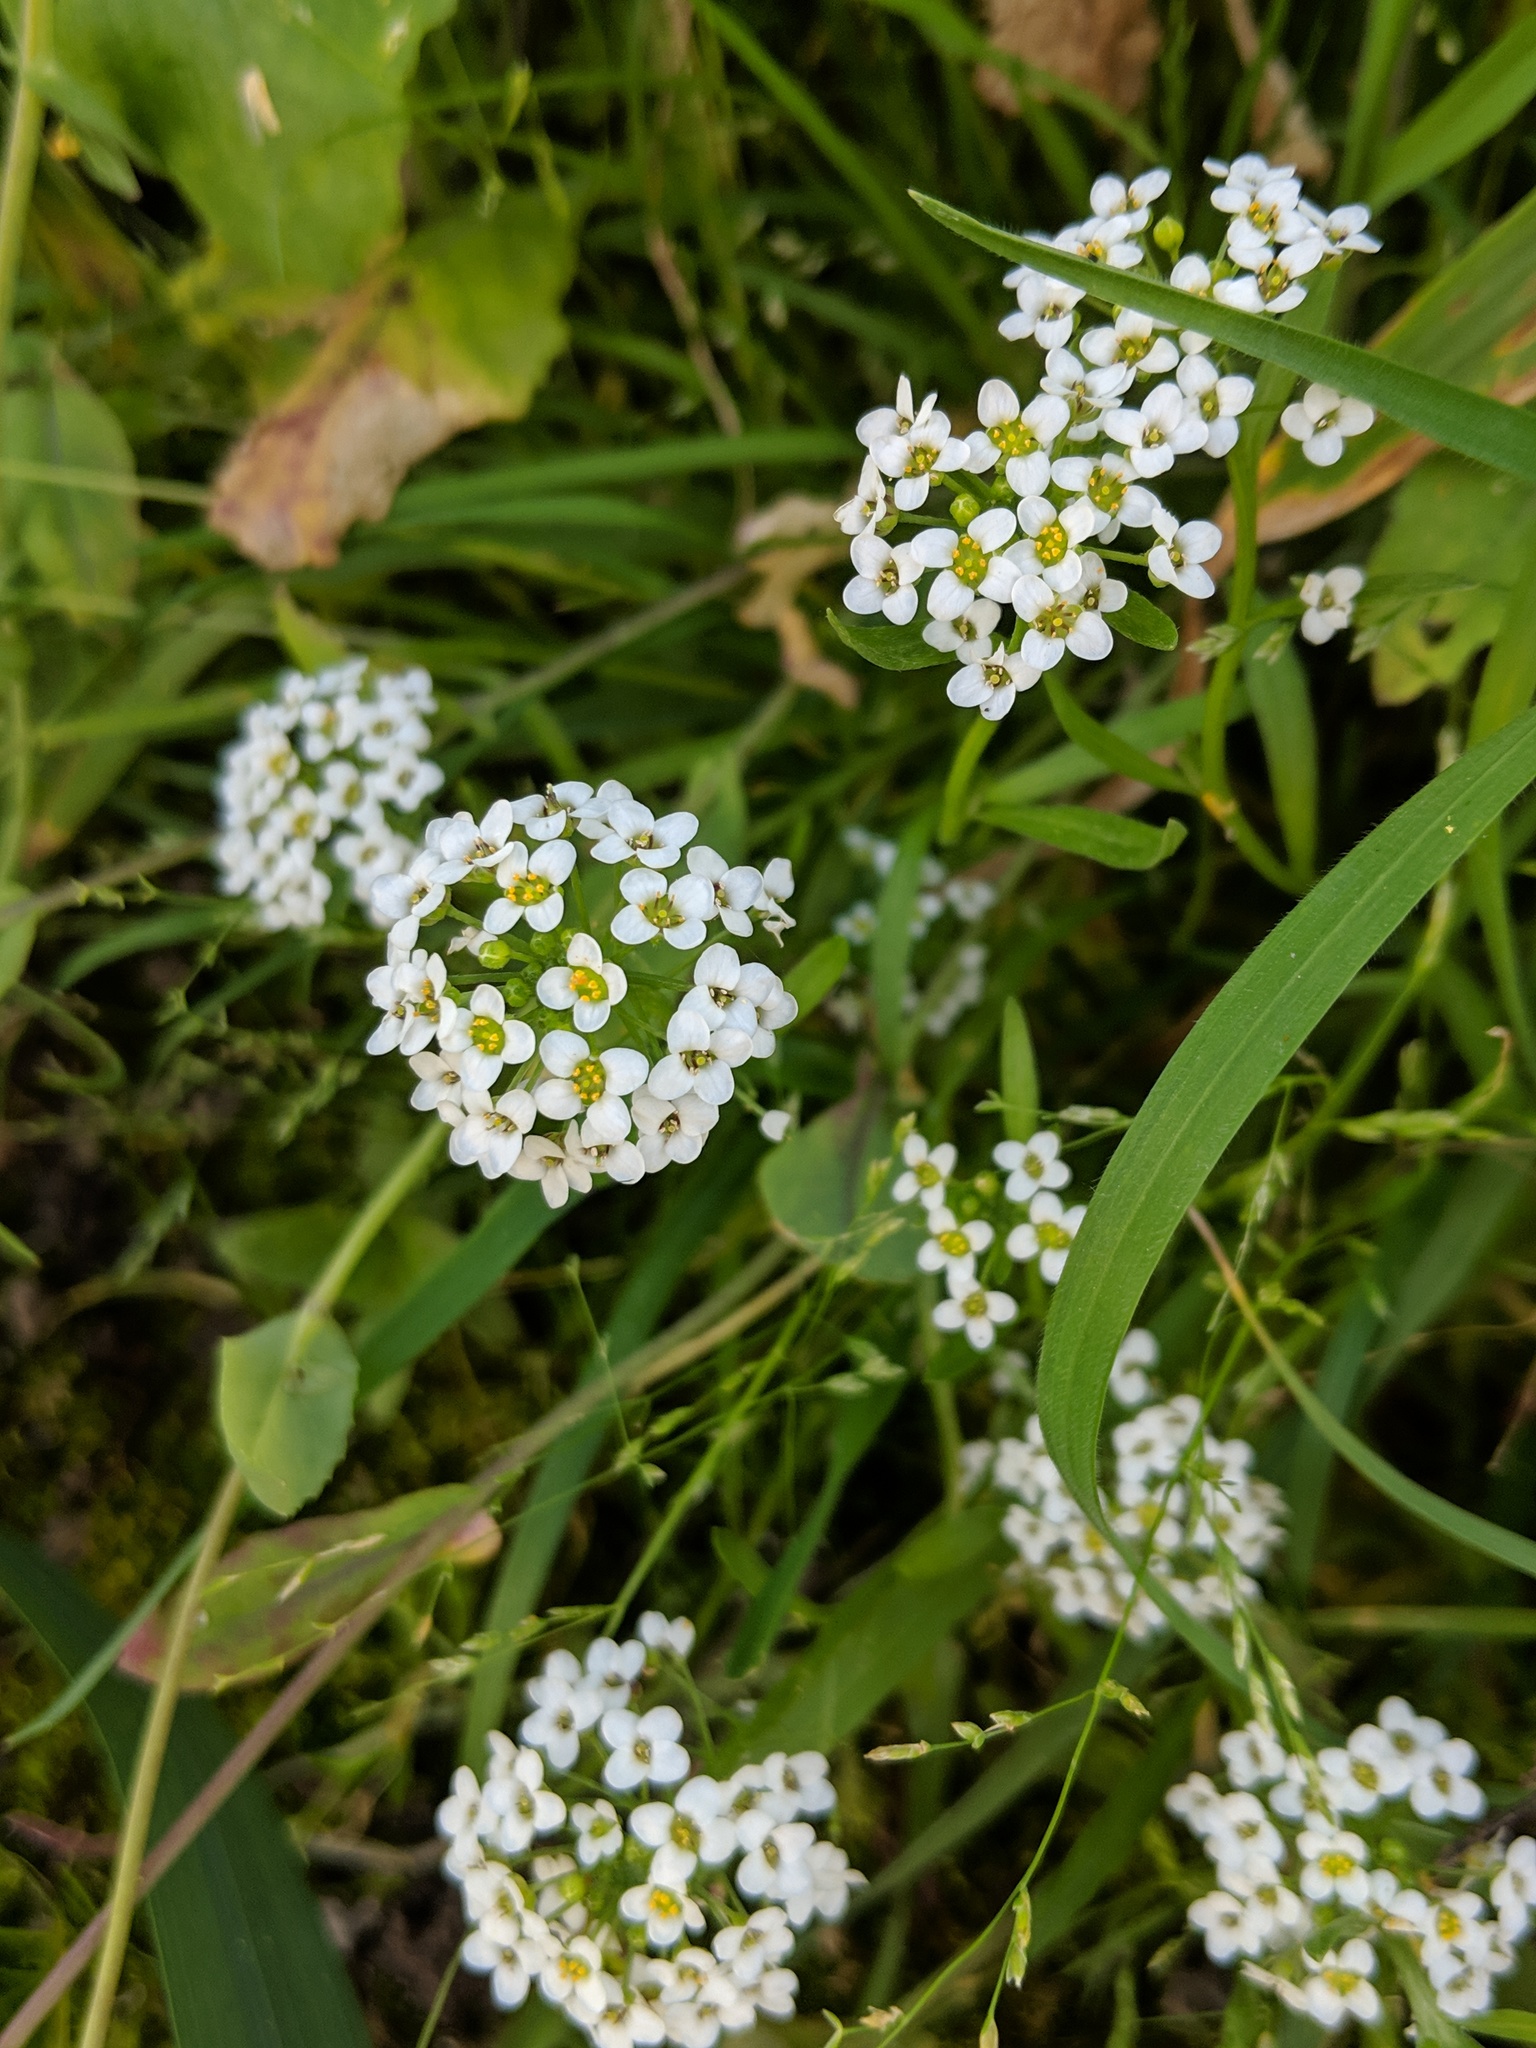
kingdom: Plantae
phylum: Tracheophyta
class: Magnoliopsida
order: Brassicales
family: Brassicaceae
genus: Lobularia
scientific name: Lobularia maritima
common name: Sweet alison
